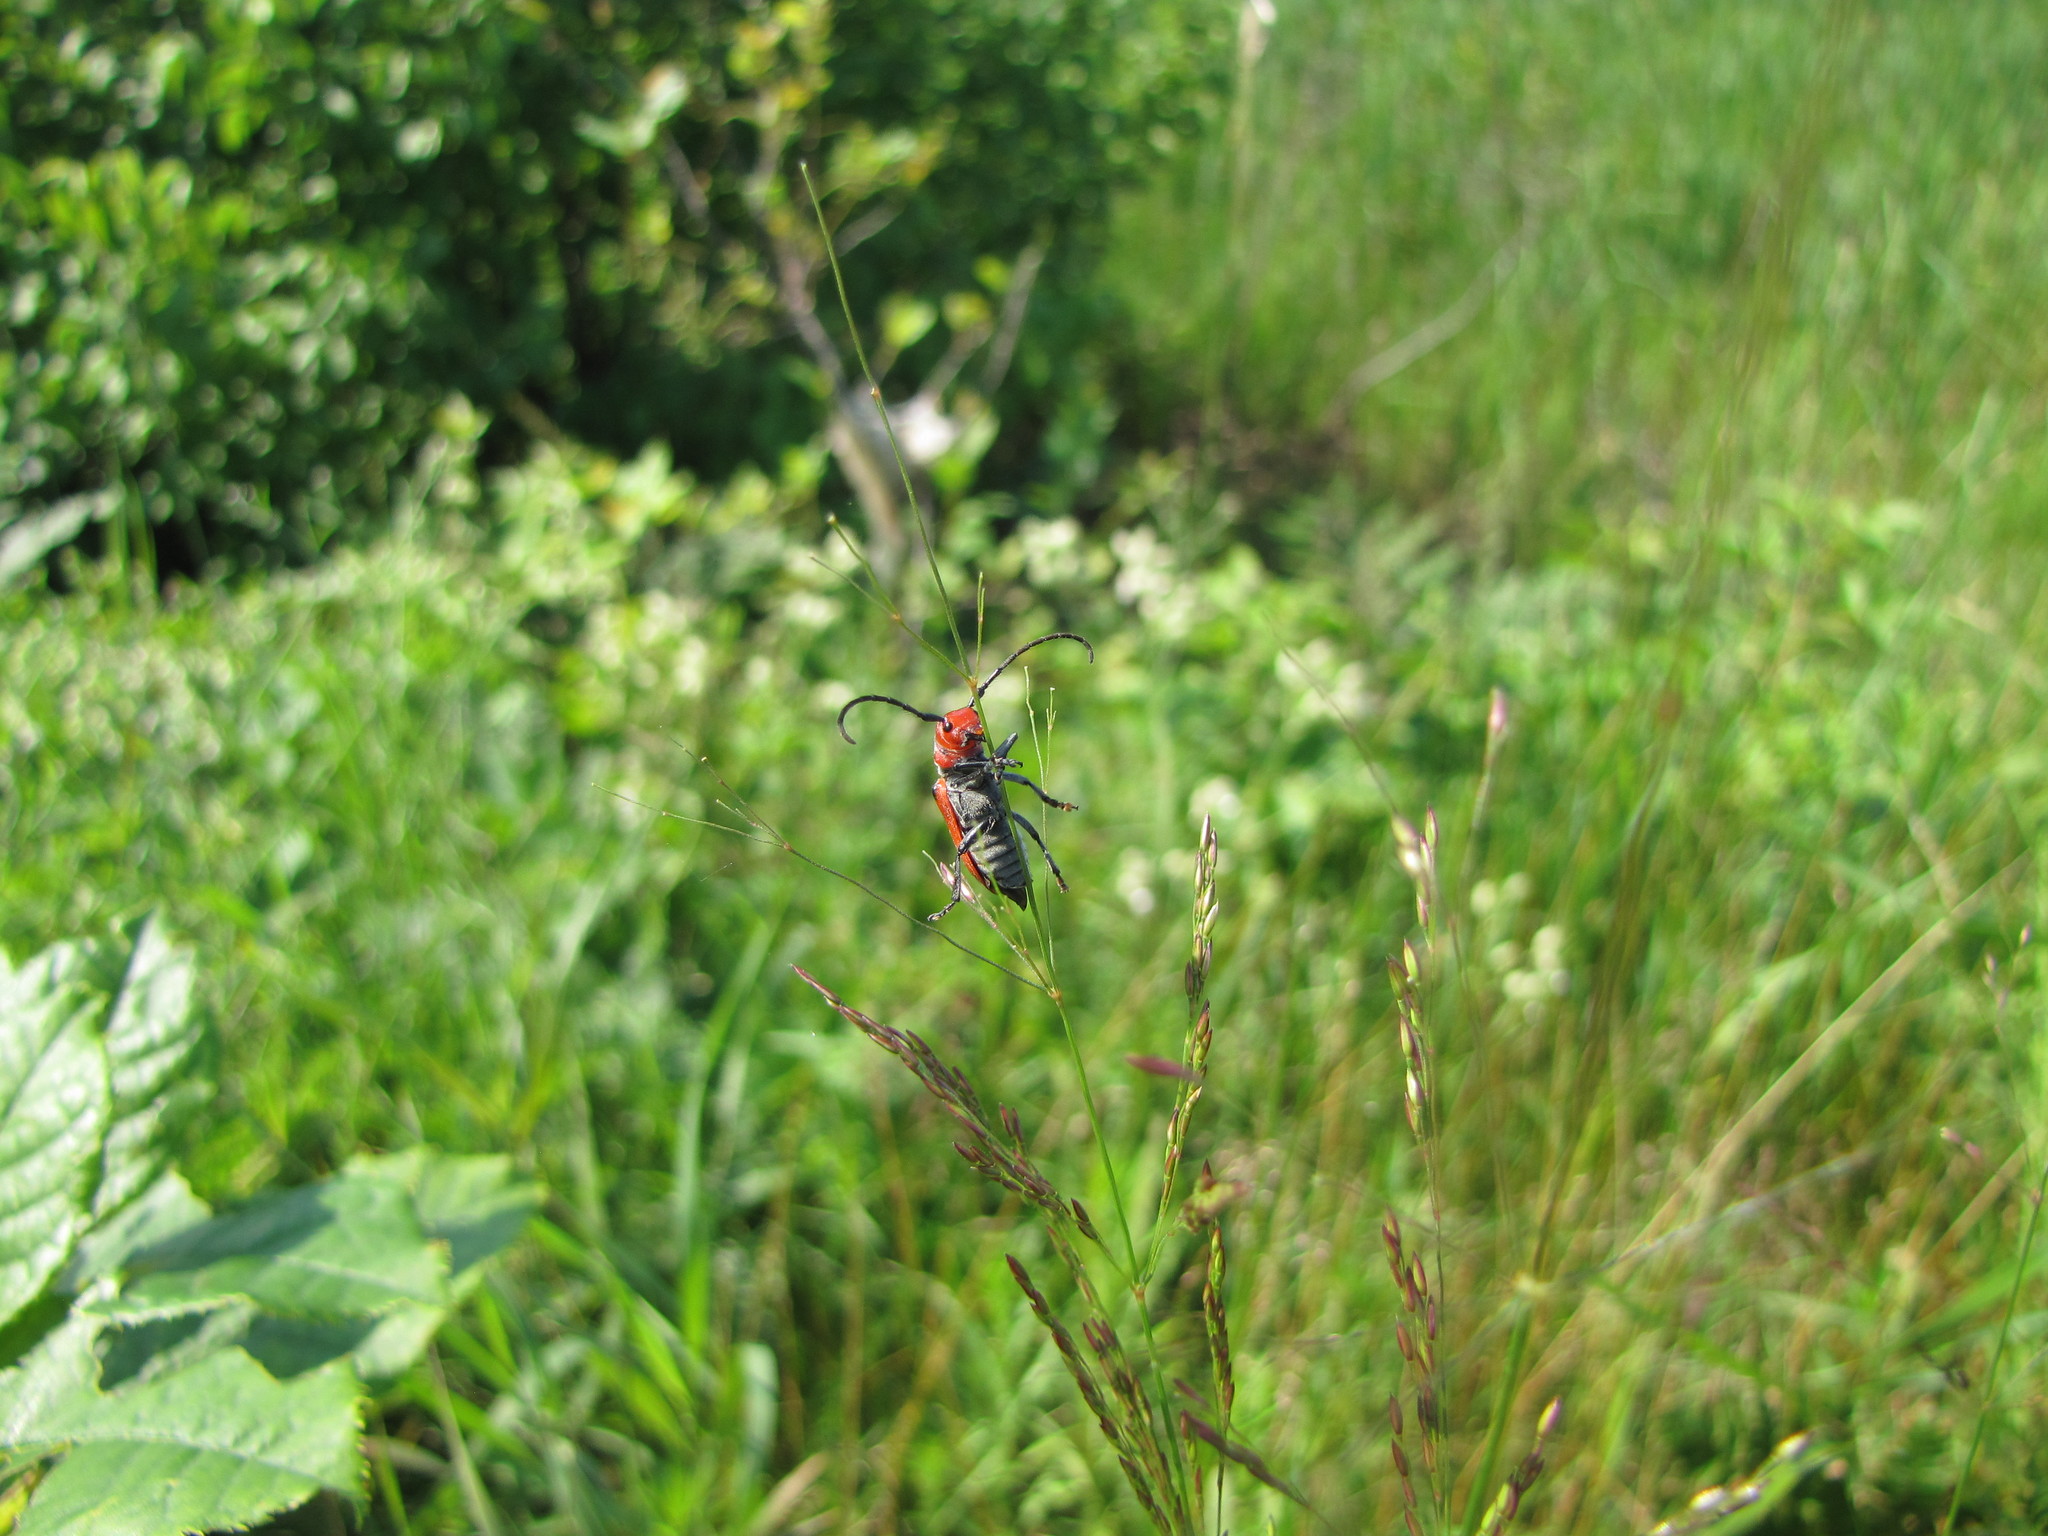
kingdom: Animalia
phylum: Arthropoda
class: Insecta
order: Coleoptera
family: Cerambycidae
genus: Tetraopes
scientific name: Tetraopes tetrophthalmus
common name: Red milkweed beetle
